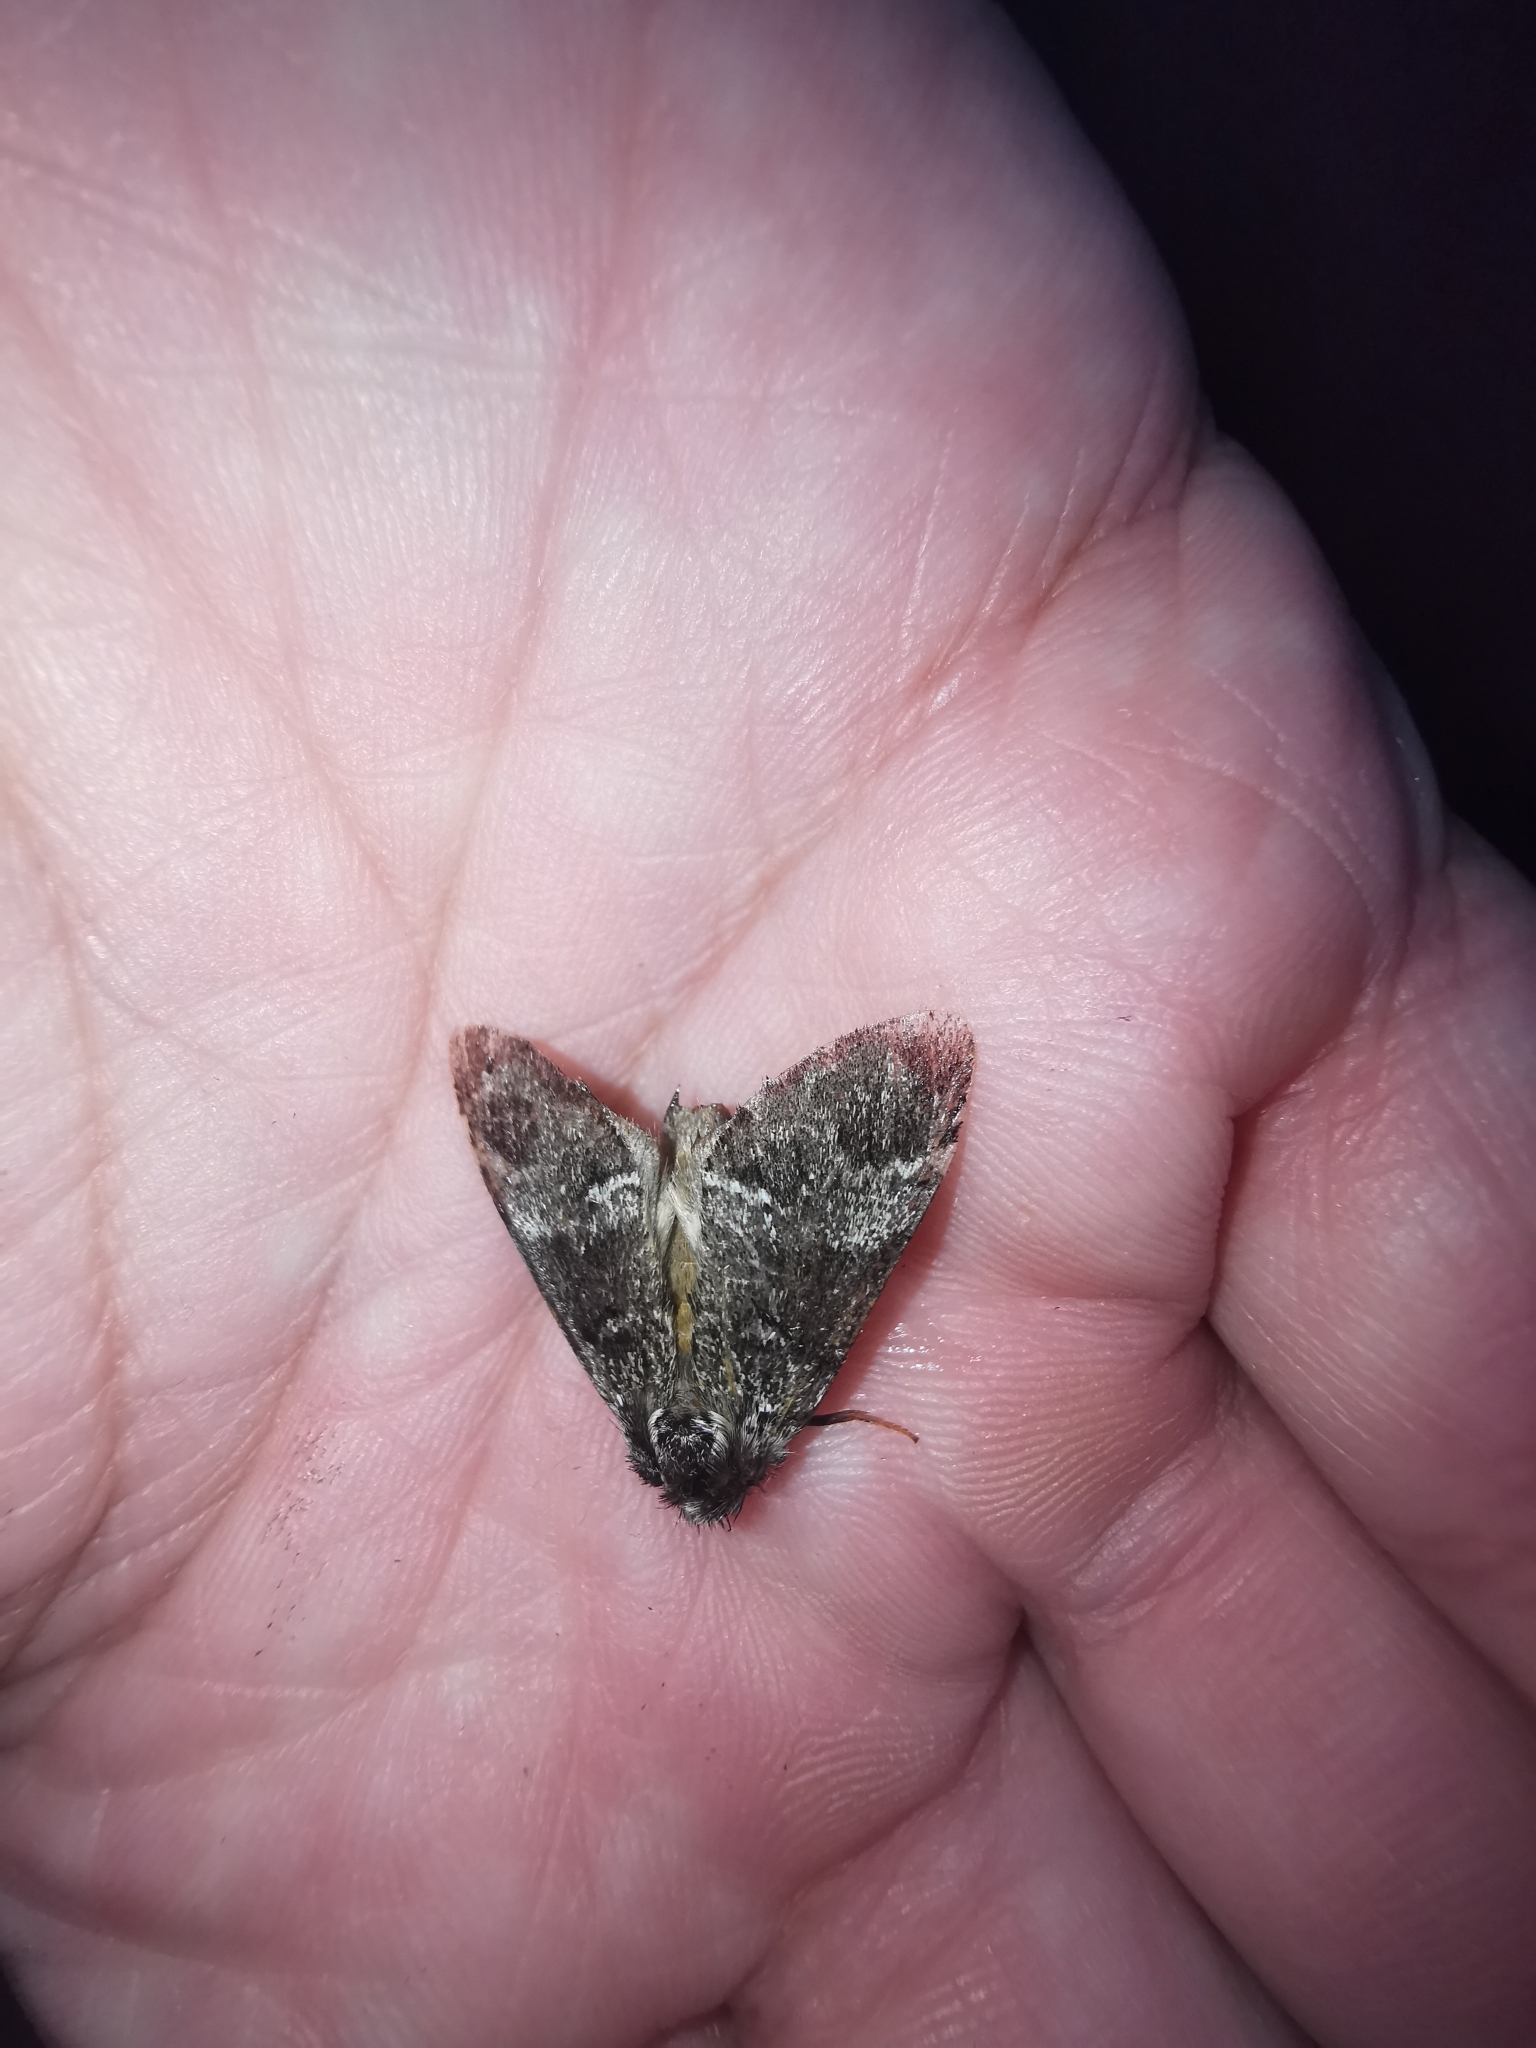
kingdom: Animalia
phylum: Arthropoda
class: Insecta
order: Lepidoptera
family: Notodontidae
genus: Drymonia
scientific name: Drymonia dodonaea
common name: Marbled brown
